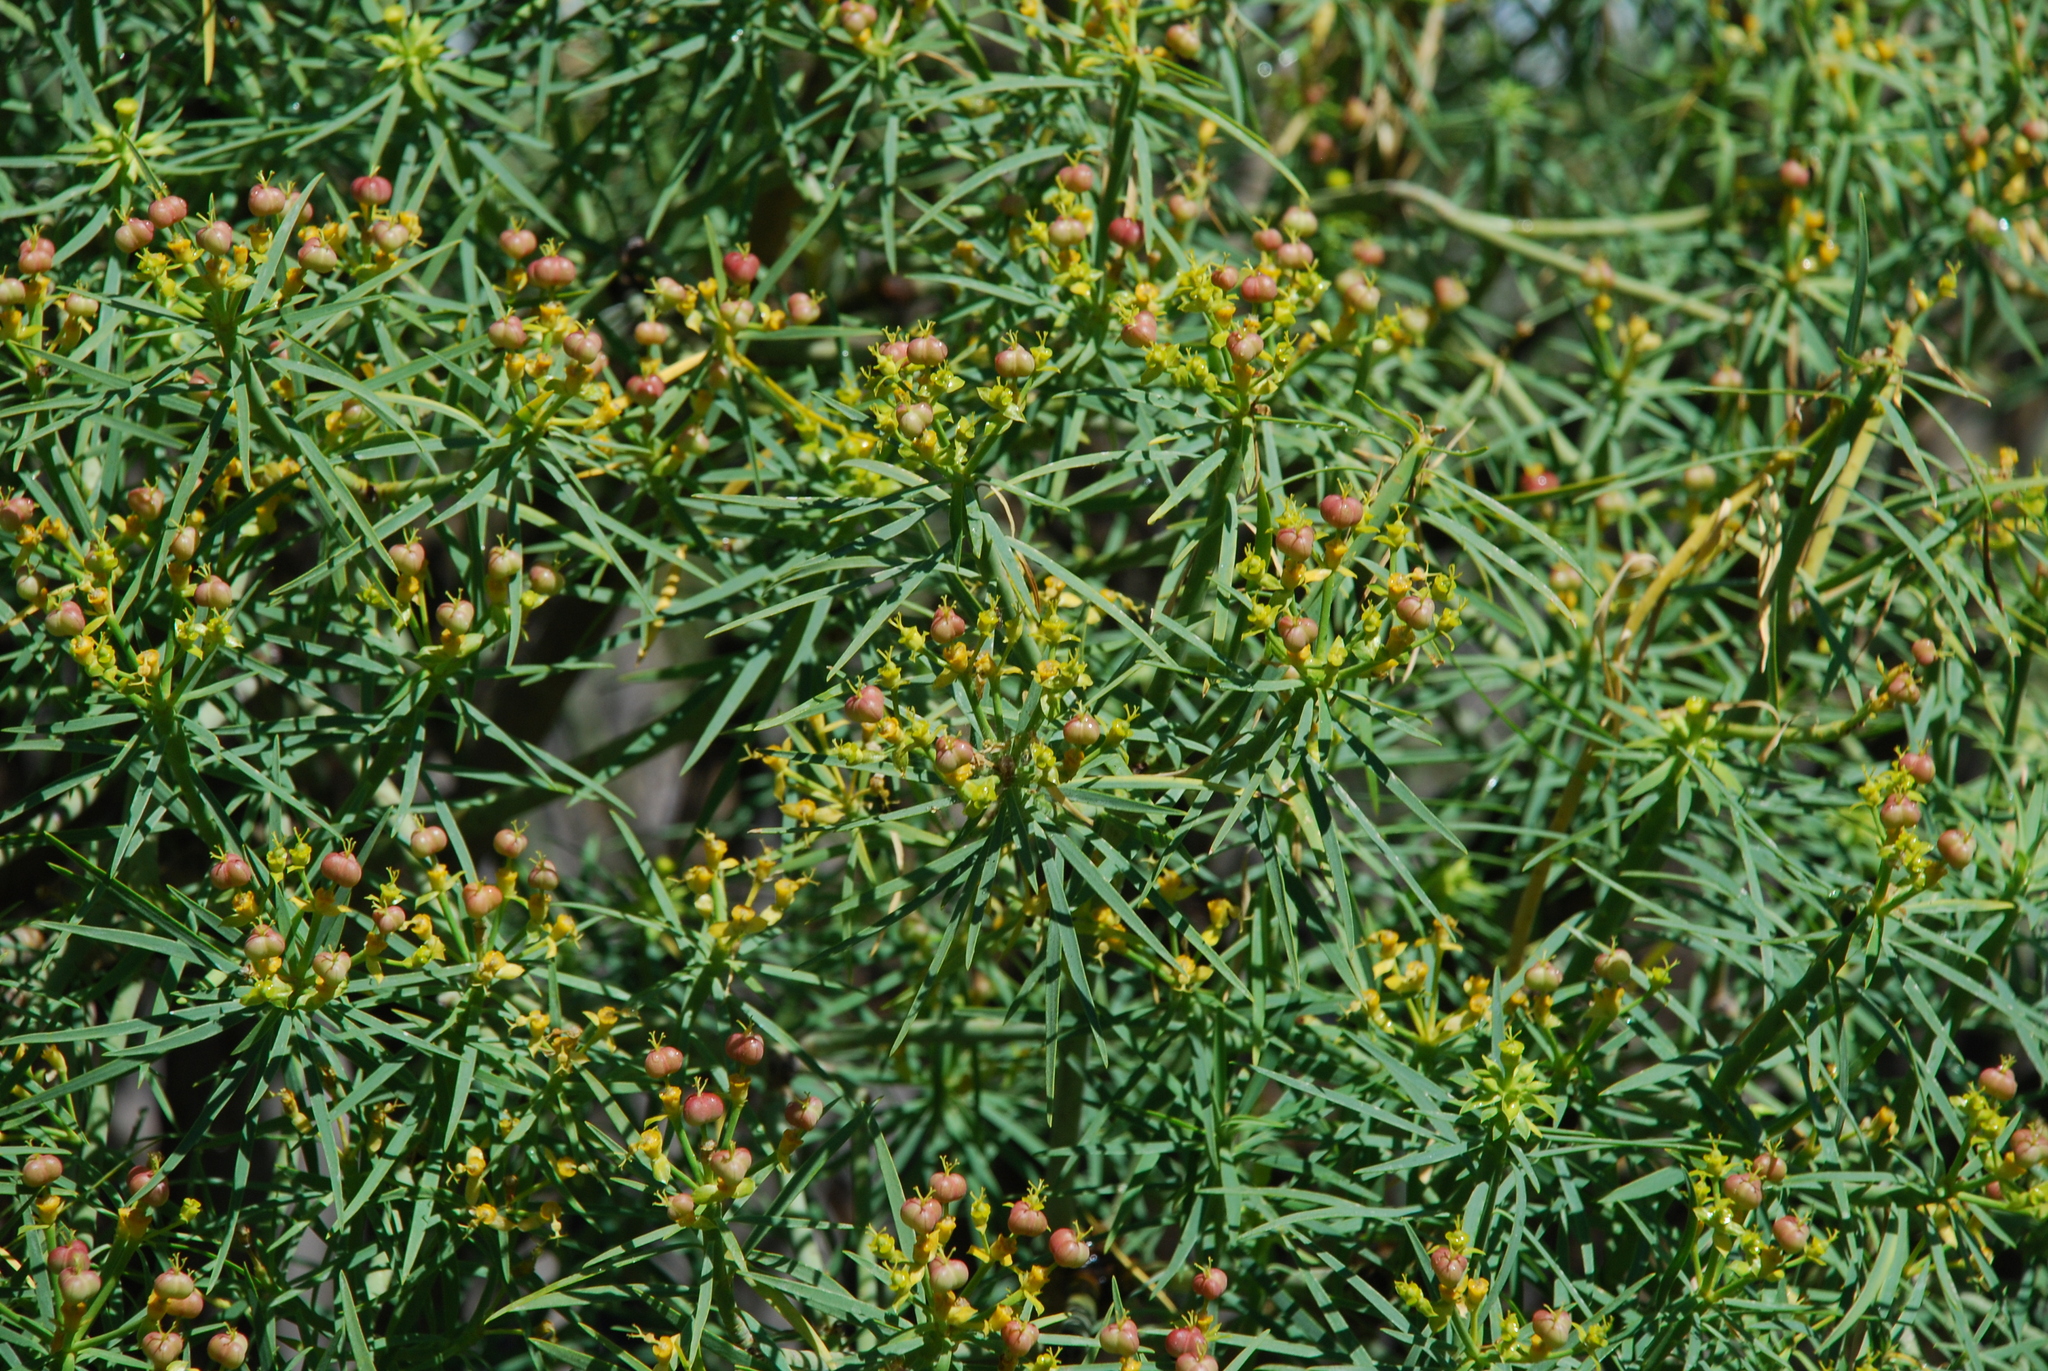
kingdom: Plantae
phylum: Tracheophyta
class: Magnoliopsida
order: Malpighiales
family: Euphorbiaceae
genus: Euphorbia
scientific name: Euphorbia lamarckii
